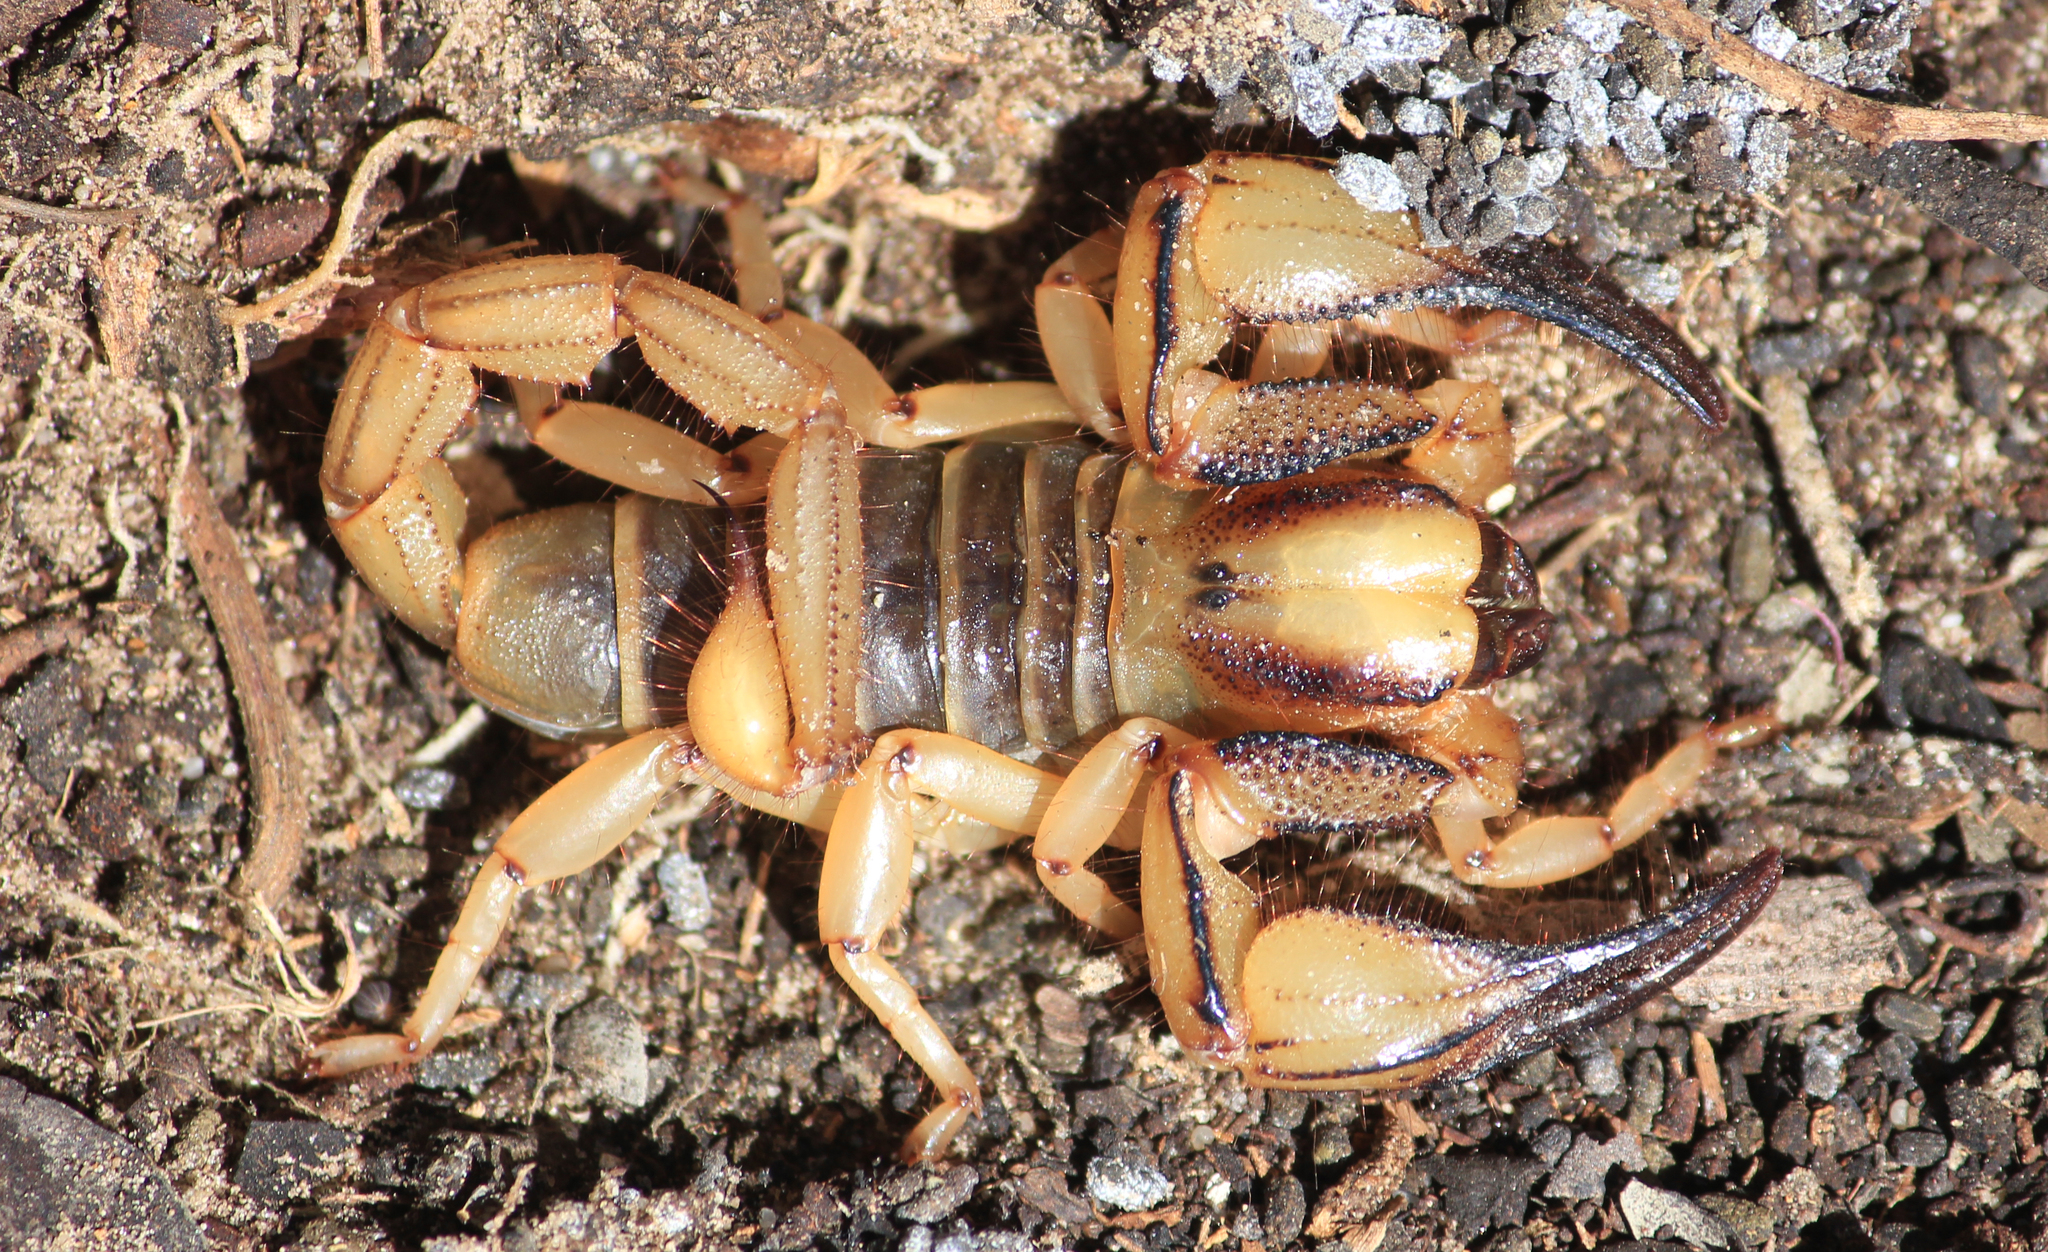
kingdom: Animalia
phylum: Arthropoda
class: Arachnida
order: Scorpiones
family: Scorpionidae
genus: Opistophthalmus
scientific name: Opistophthalmus capensis
